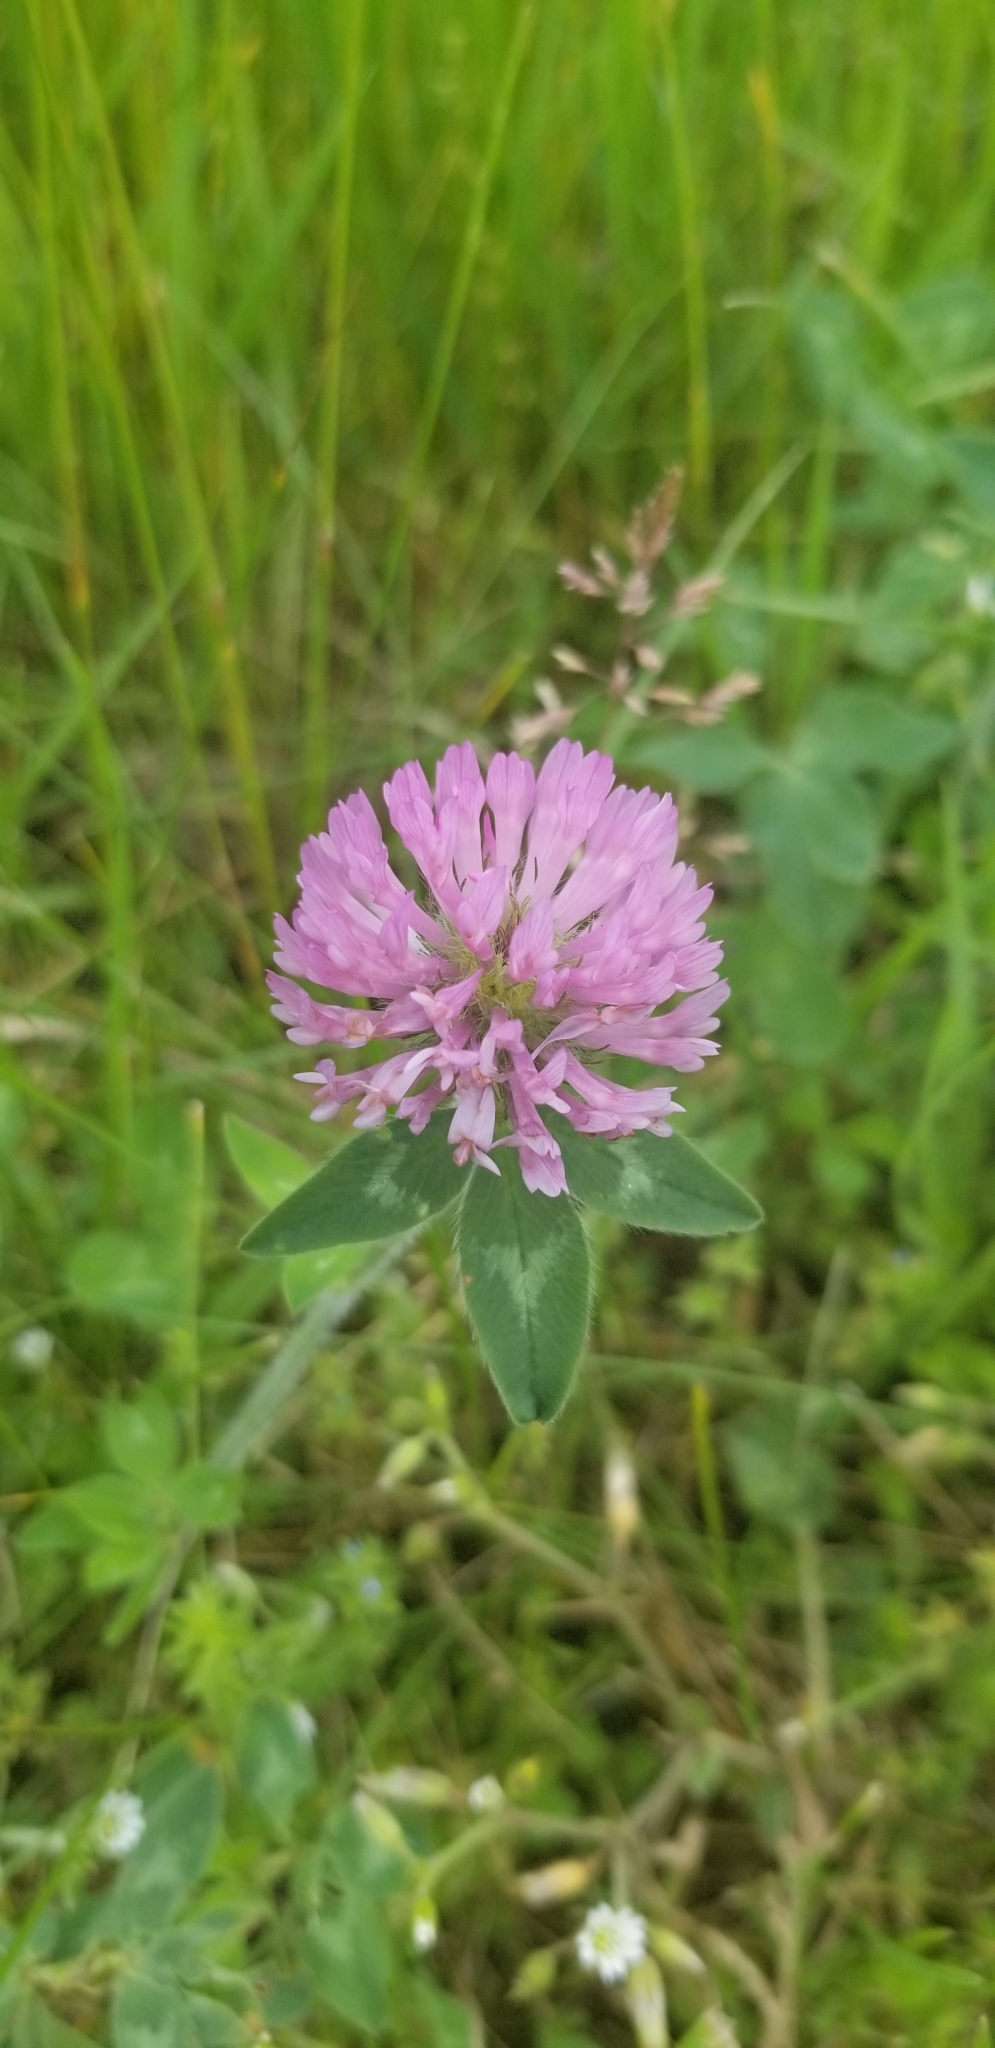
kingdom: Plantae
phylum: Tracheophyta
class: Magnoliopsida
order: Fabales
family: Fabaceae
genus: Trifolium
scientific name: Trifolium pratense
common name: Red clover
